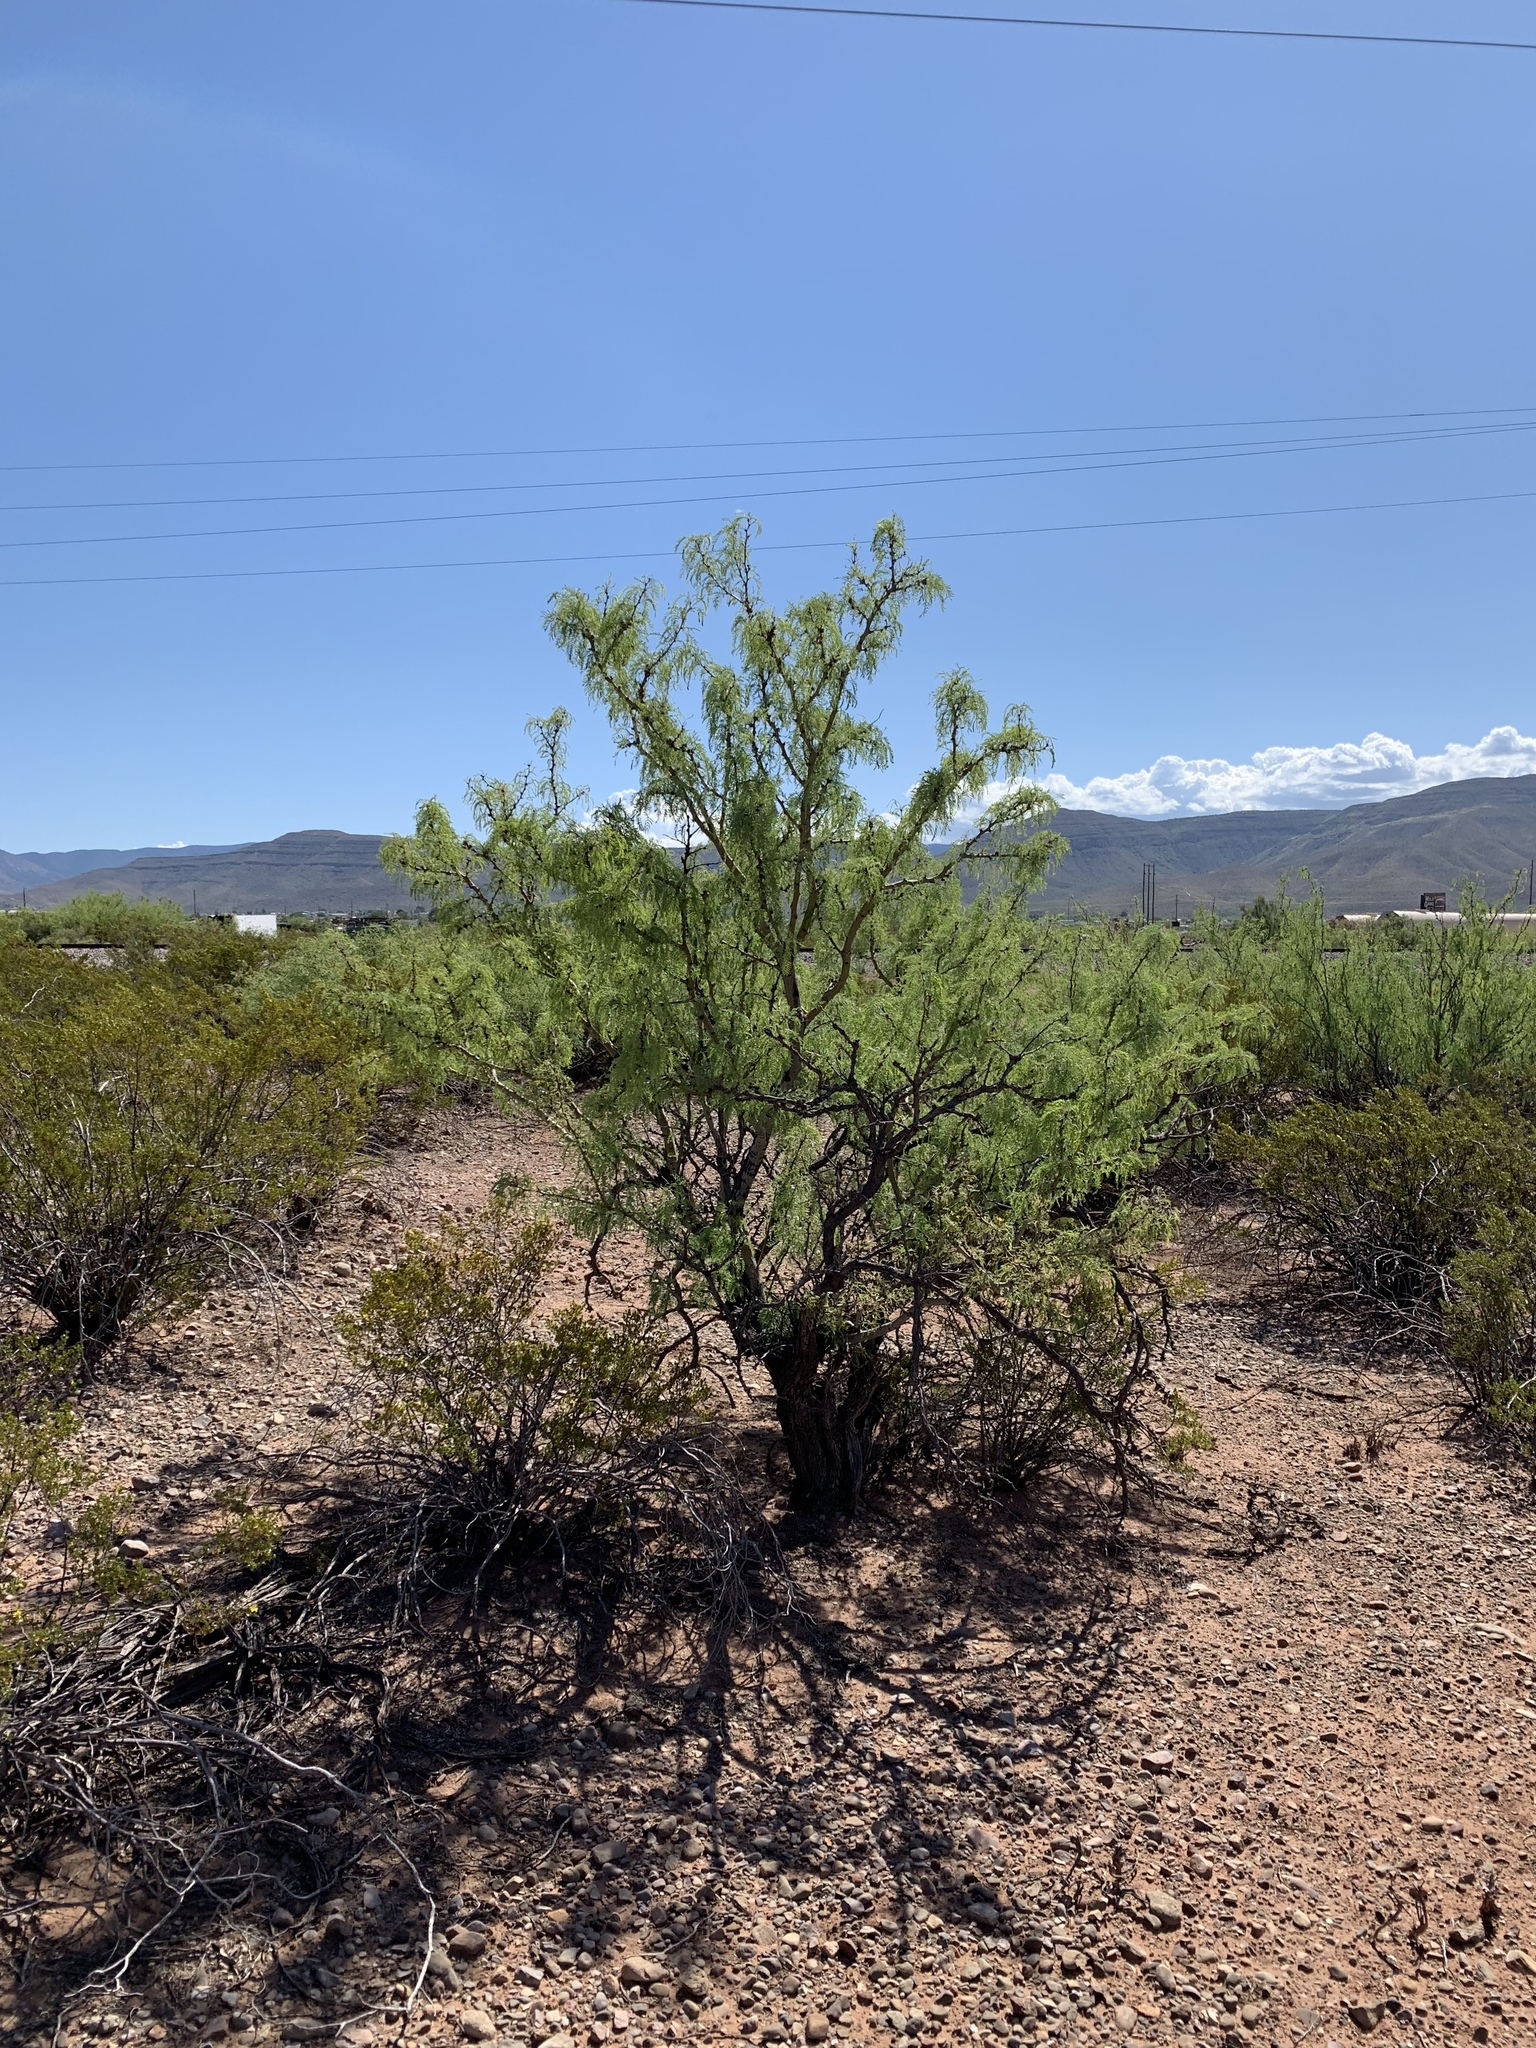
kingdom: Plantae
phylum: Tracheophyta
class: Magnoliopsida
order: Fabales
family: Fabaceae
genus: Prosopis
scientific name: Prosopis glandulosa
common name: Honey mesquite
